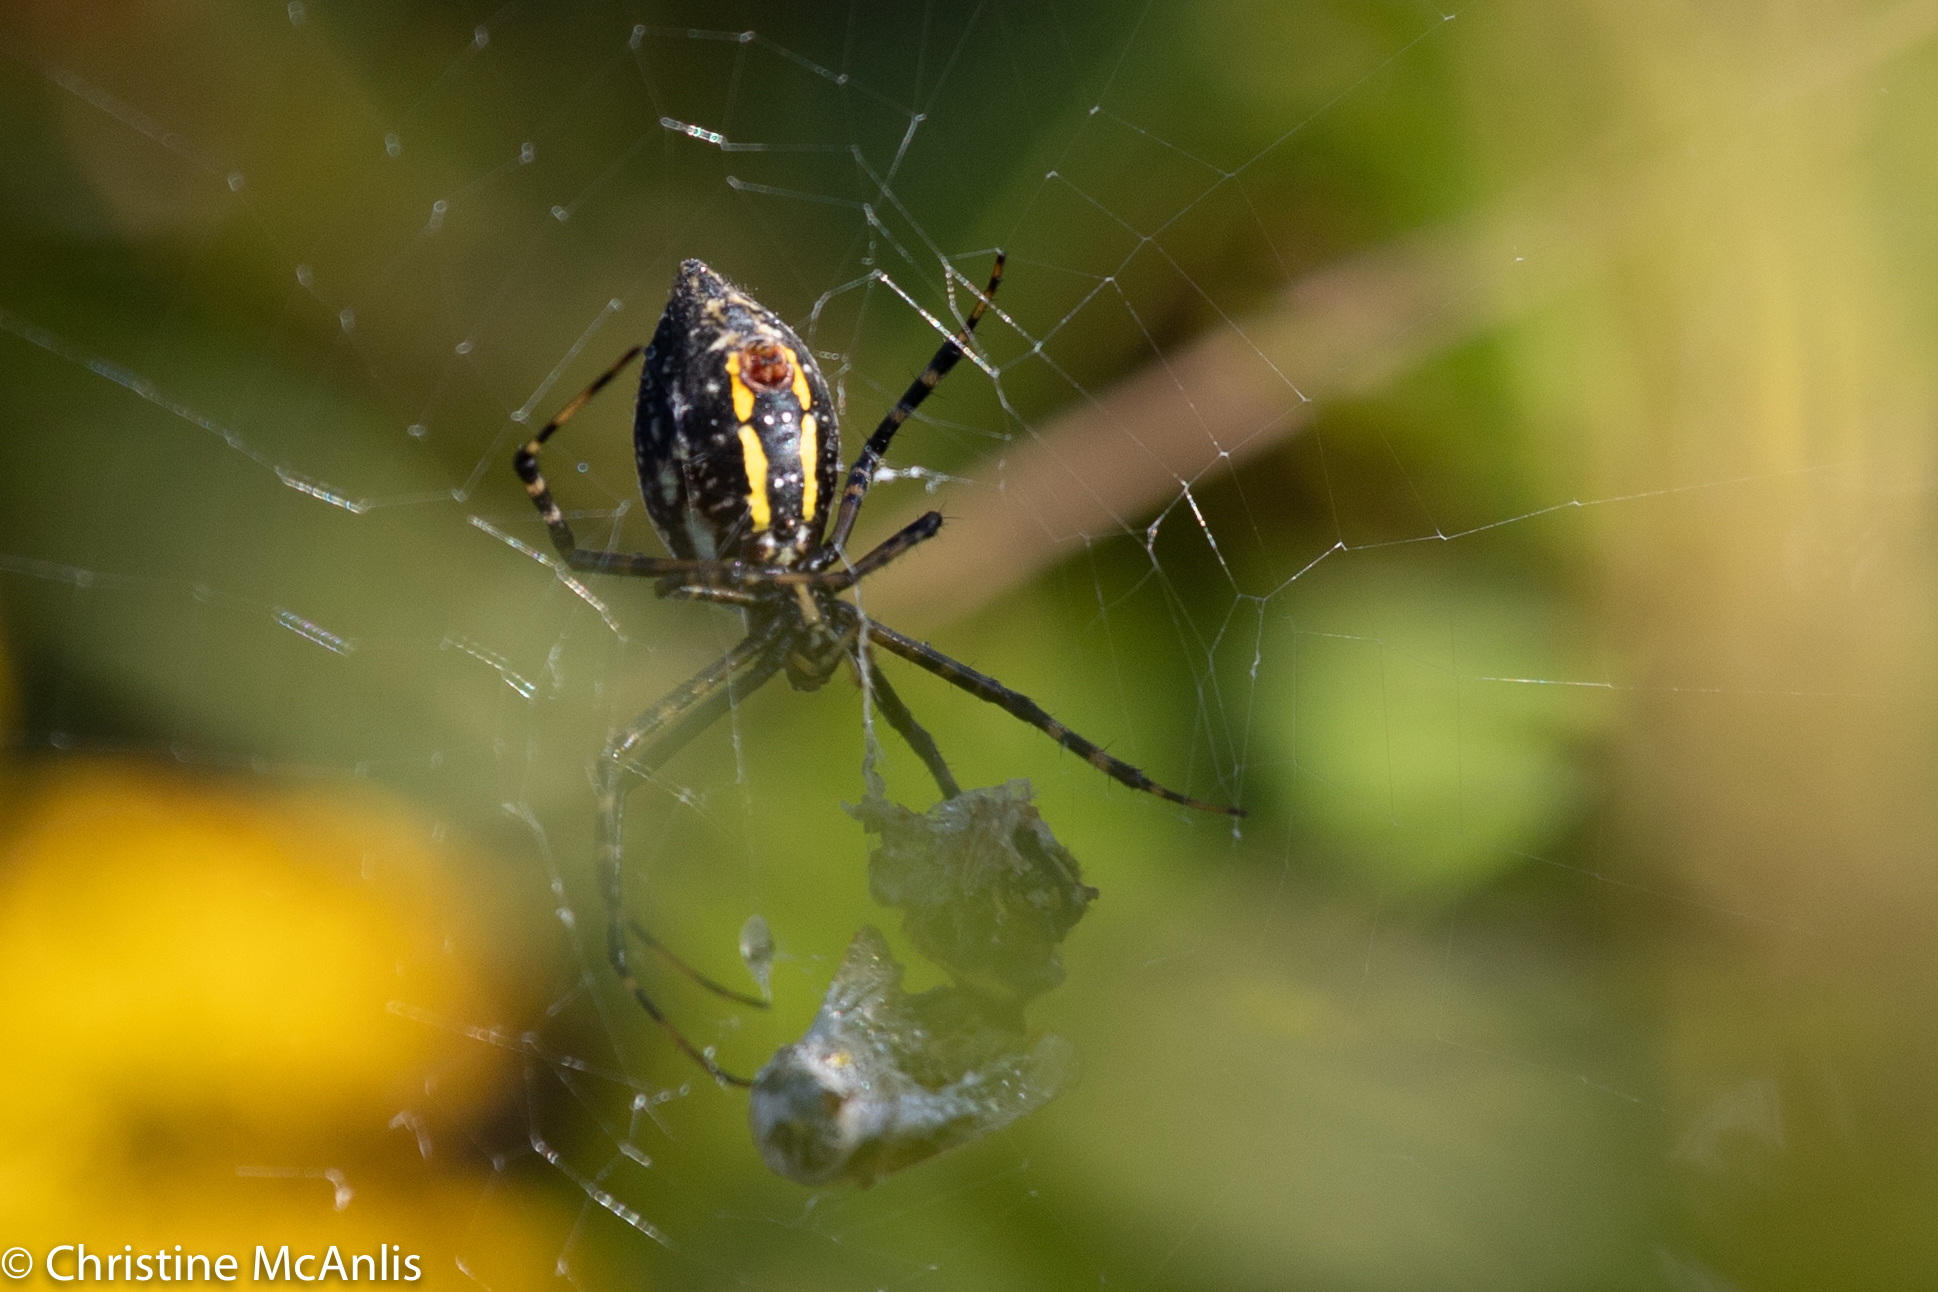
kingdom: Animalia
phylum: Arthropoda
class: Arachnida
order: Araneae
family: Araneidae
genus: Argiope
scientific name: Argiope trifasciata
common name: Banded garden spider
